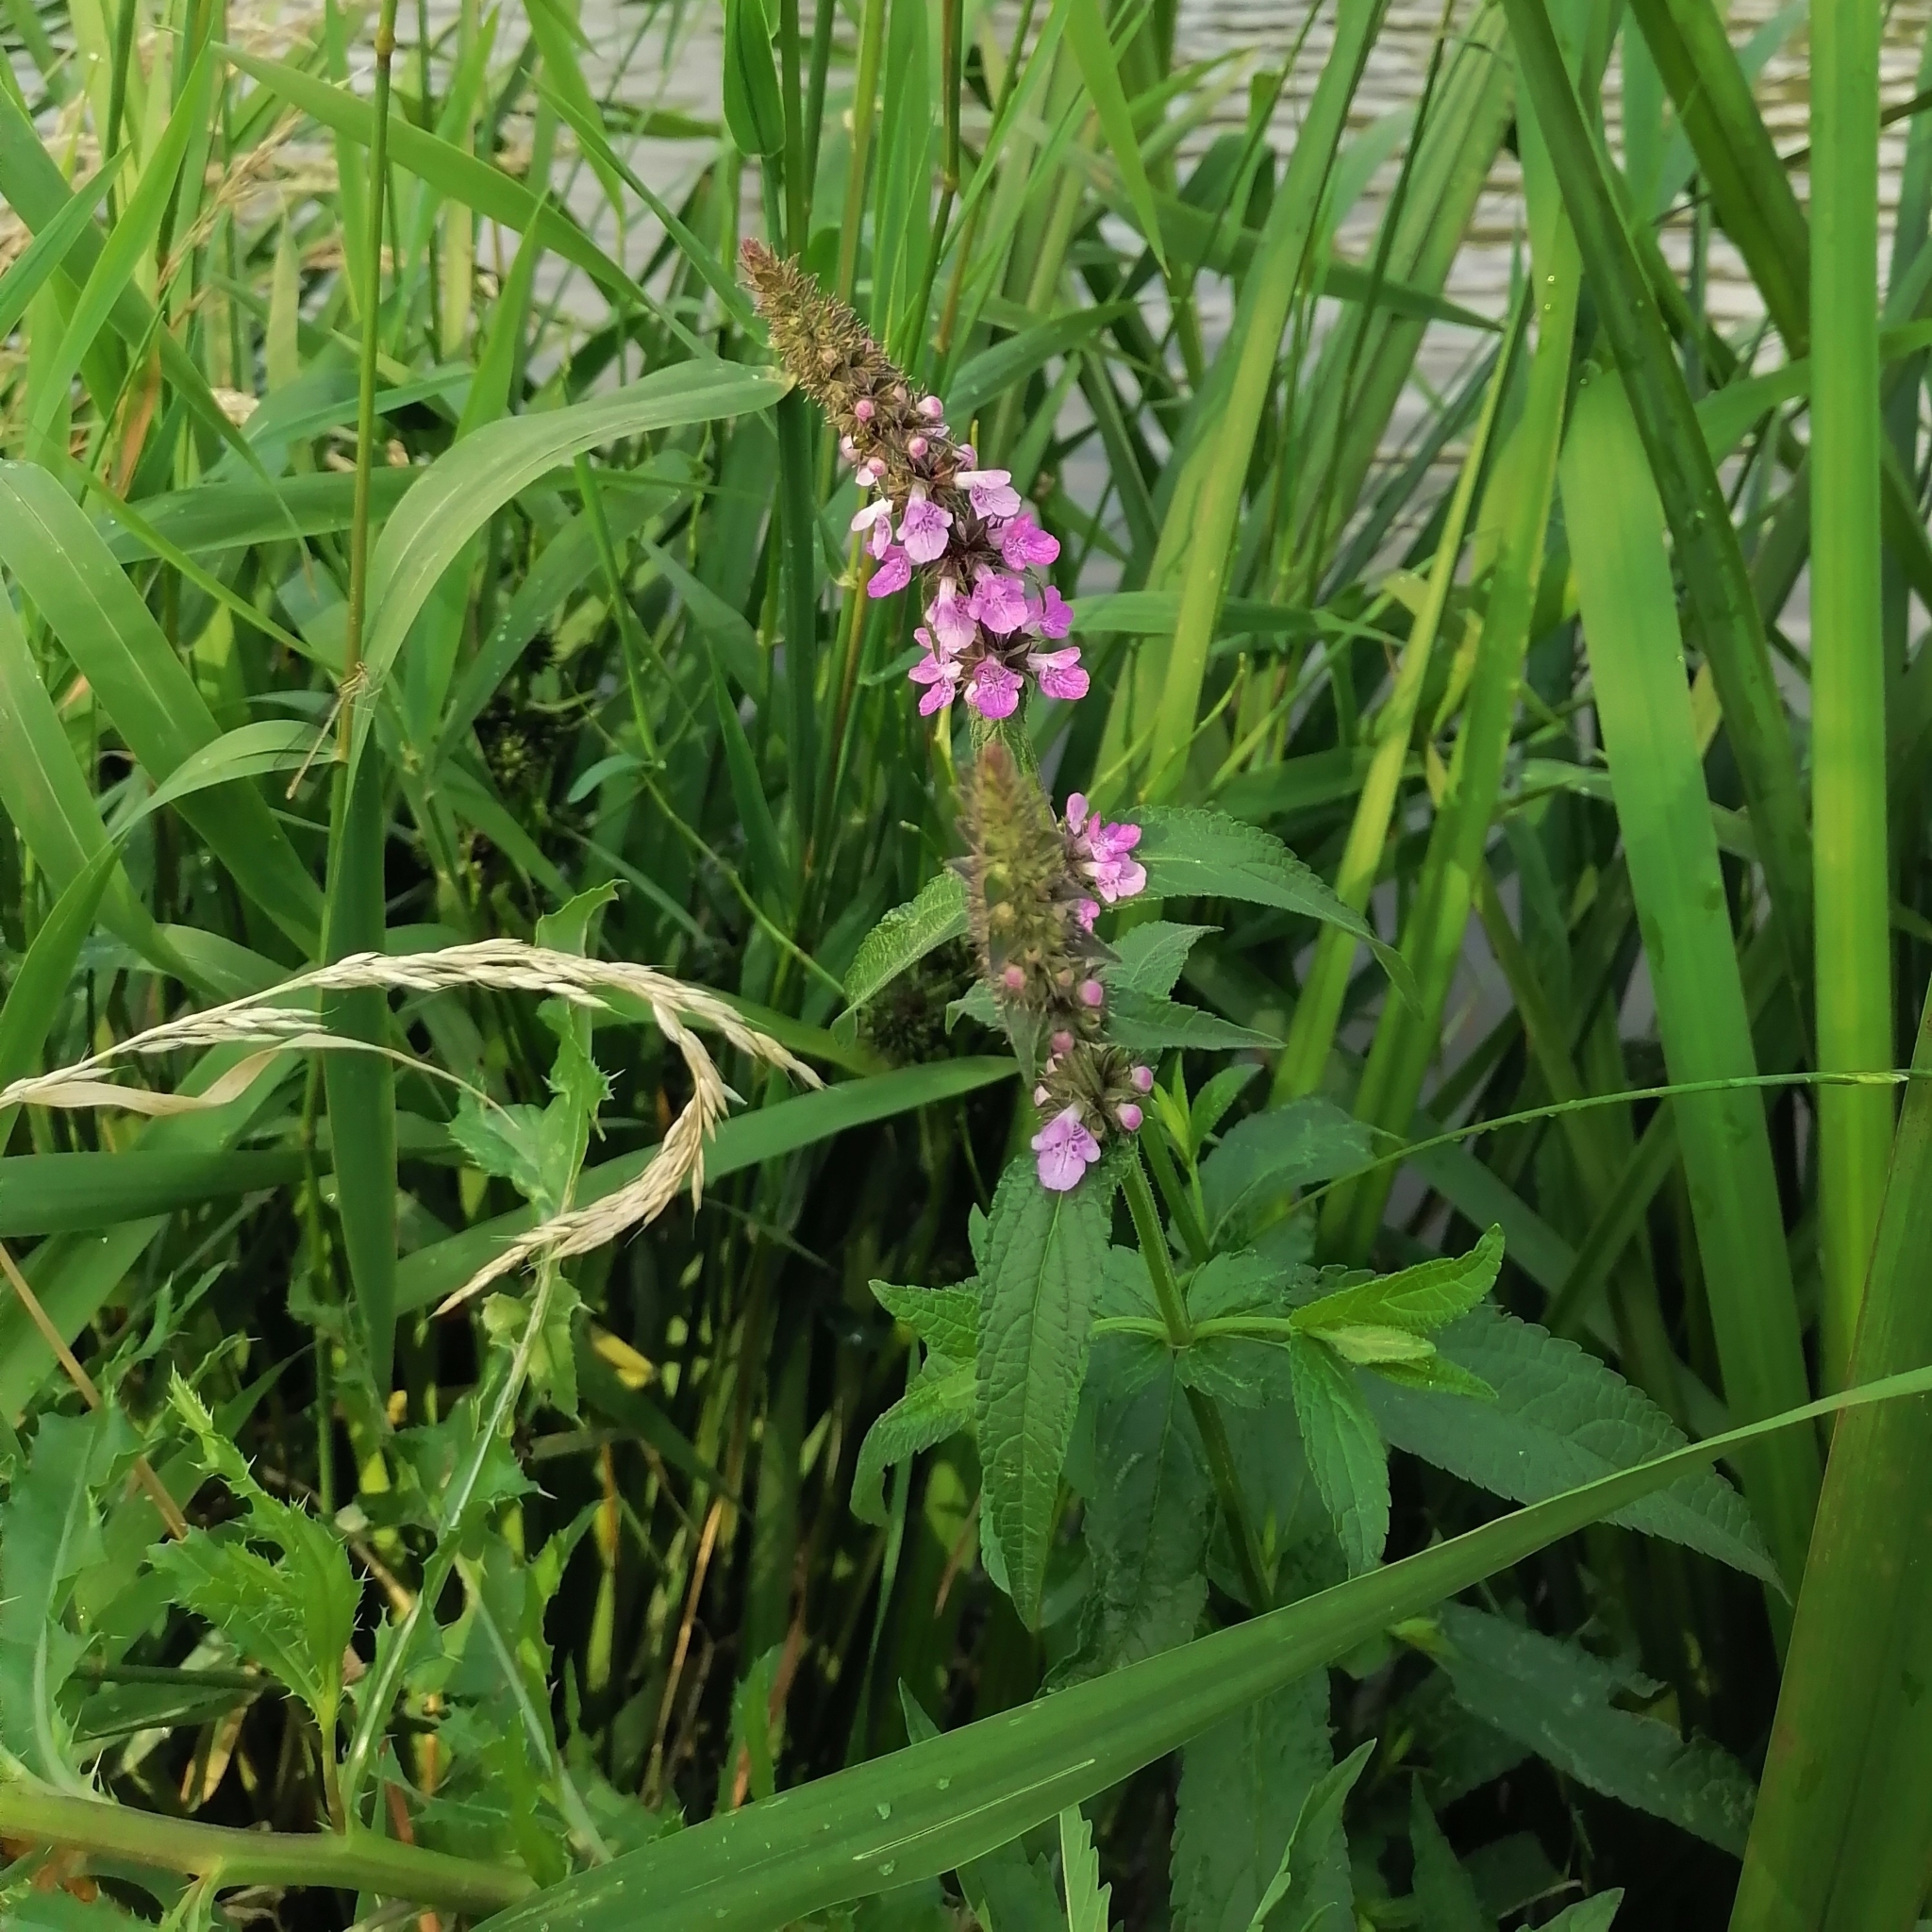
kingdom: Plantae
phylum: Tracheophyta
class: Magnoliopsida
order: Lamiales
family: Lamiaceae
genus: Stachys
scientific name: Stachys palustris
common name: Marsh woundwort
